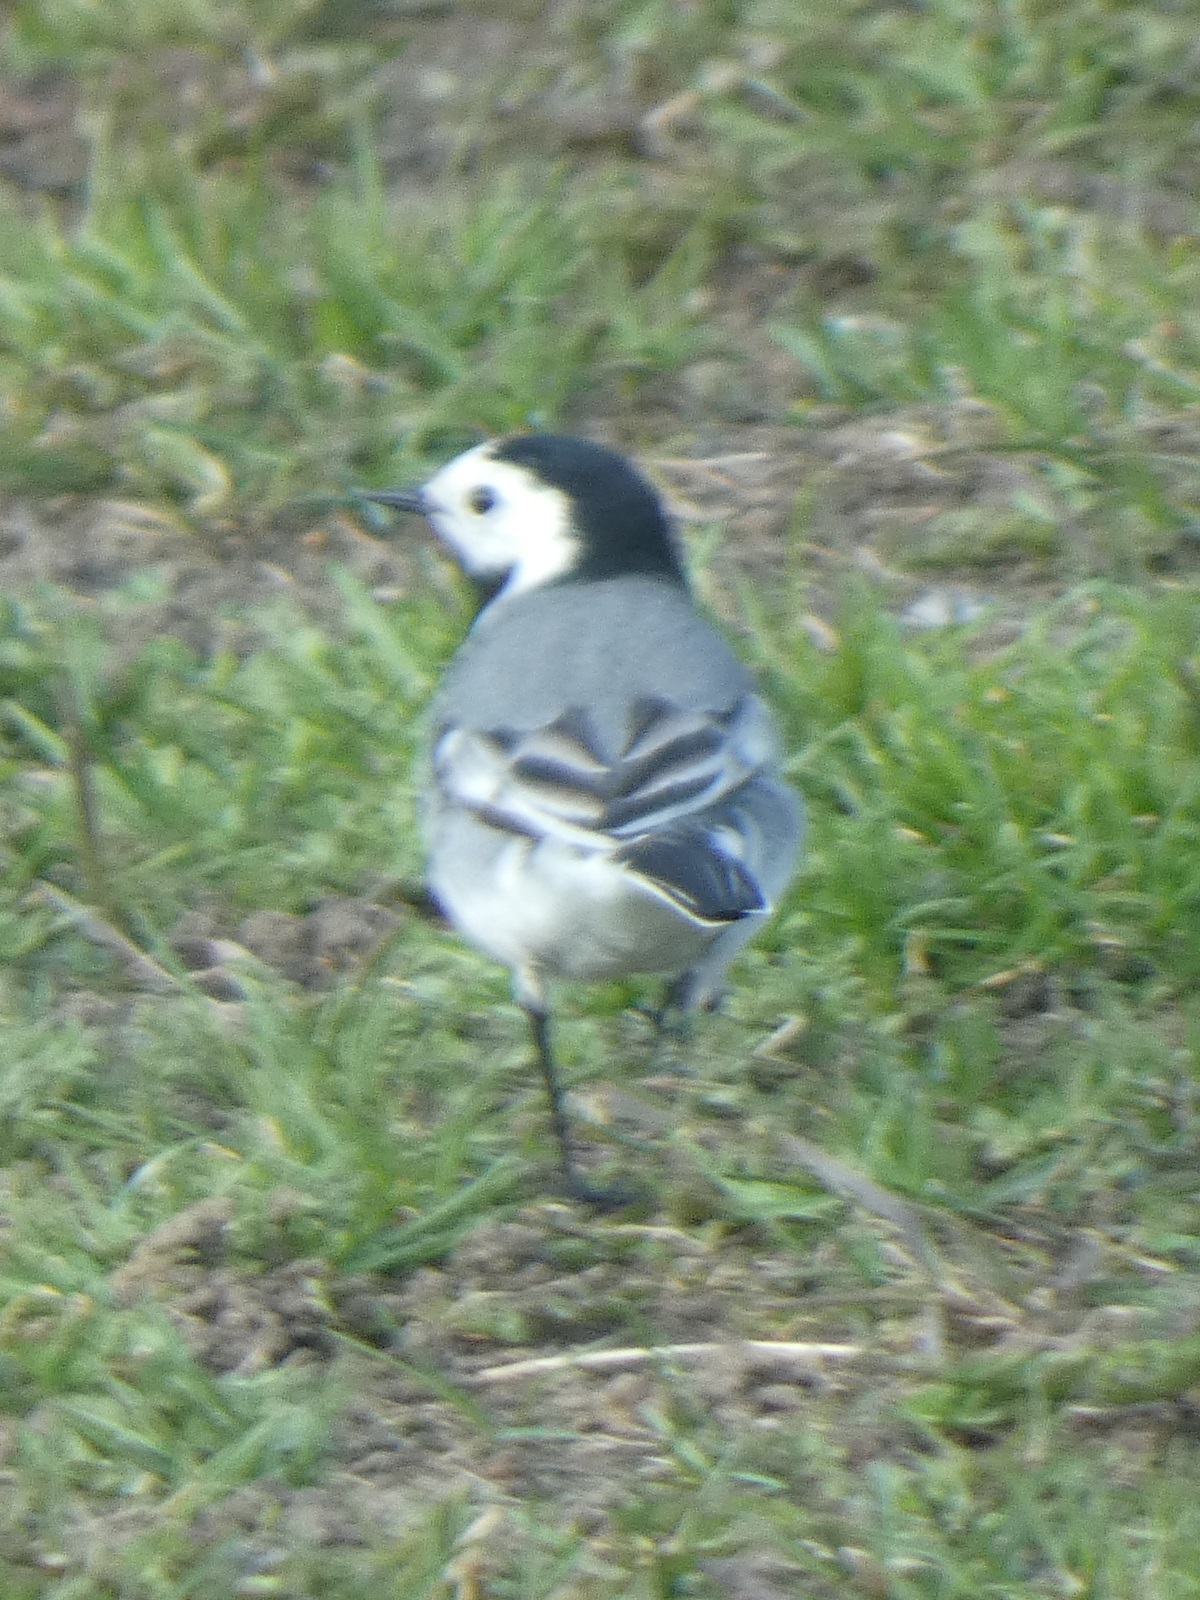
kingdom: Animalia
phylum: Chordata
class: Aves
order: Passeriformes
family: Motacillidae
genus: Motacilla
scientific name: Motacilla alba
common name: White wagtail
